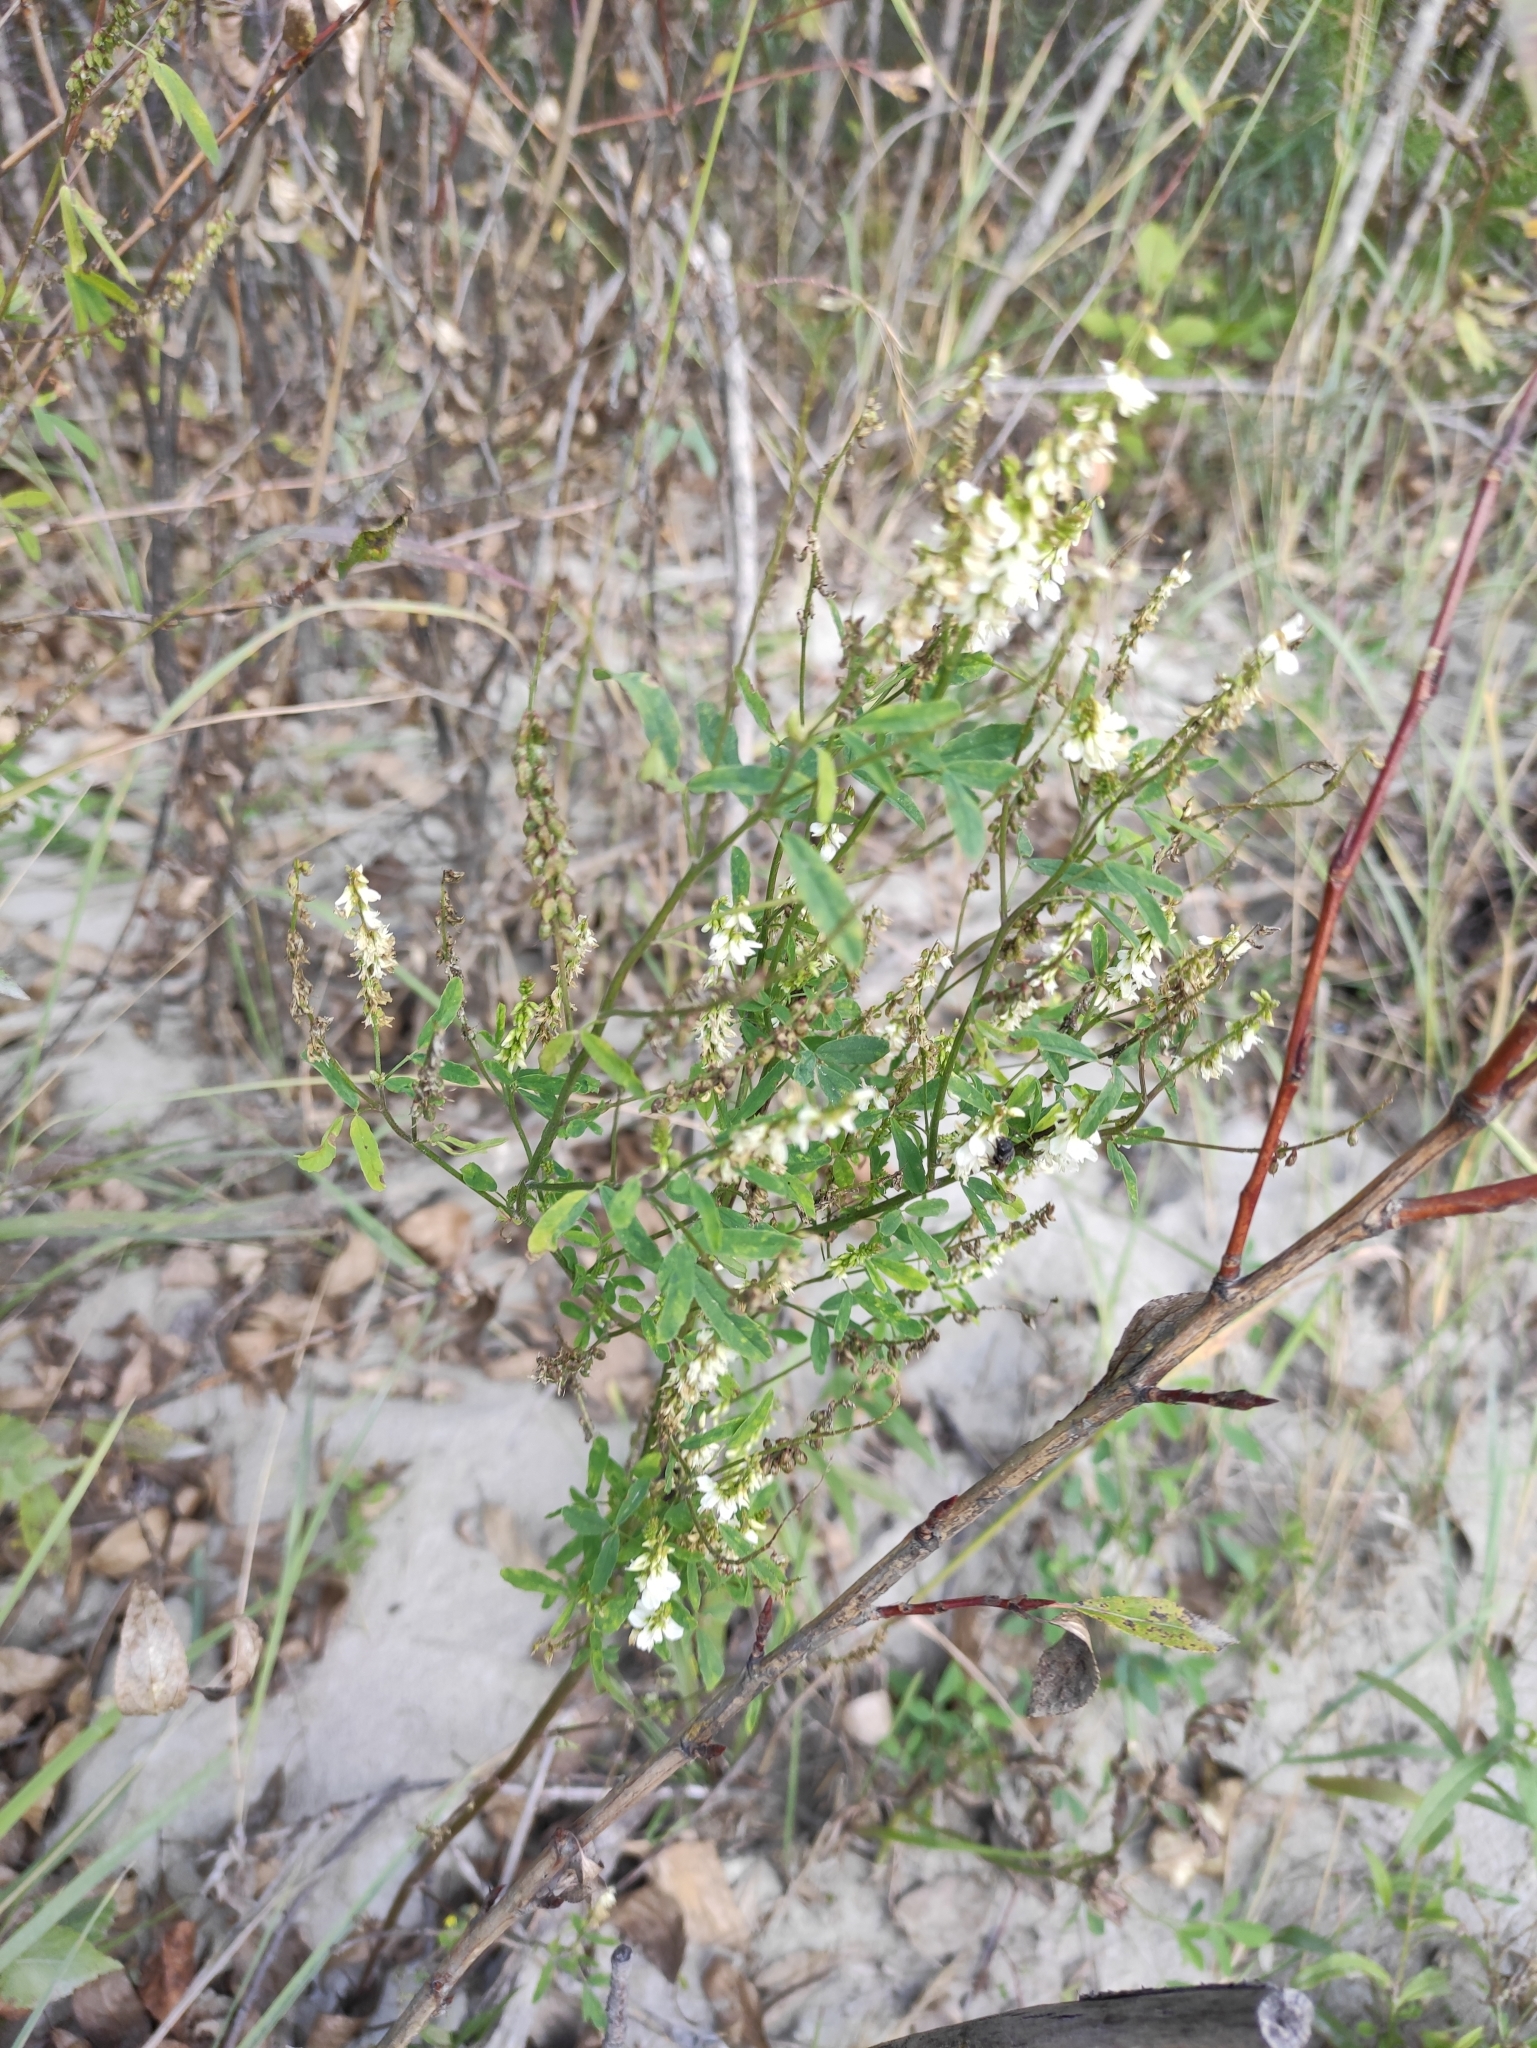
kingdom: Plantae
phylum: Tracheophyta
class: Magnoliopsida
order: Fabales
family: Fabaceae
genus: Melilotus
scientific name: Melilotus albus
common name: White melilot
